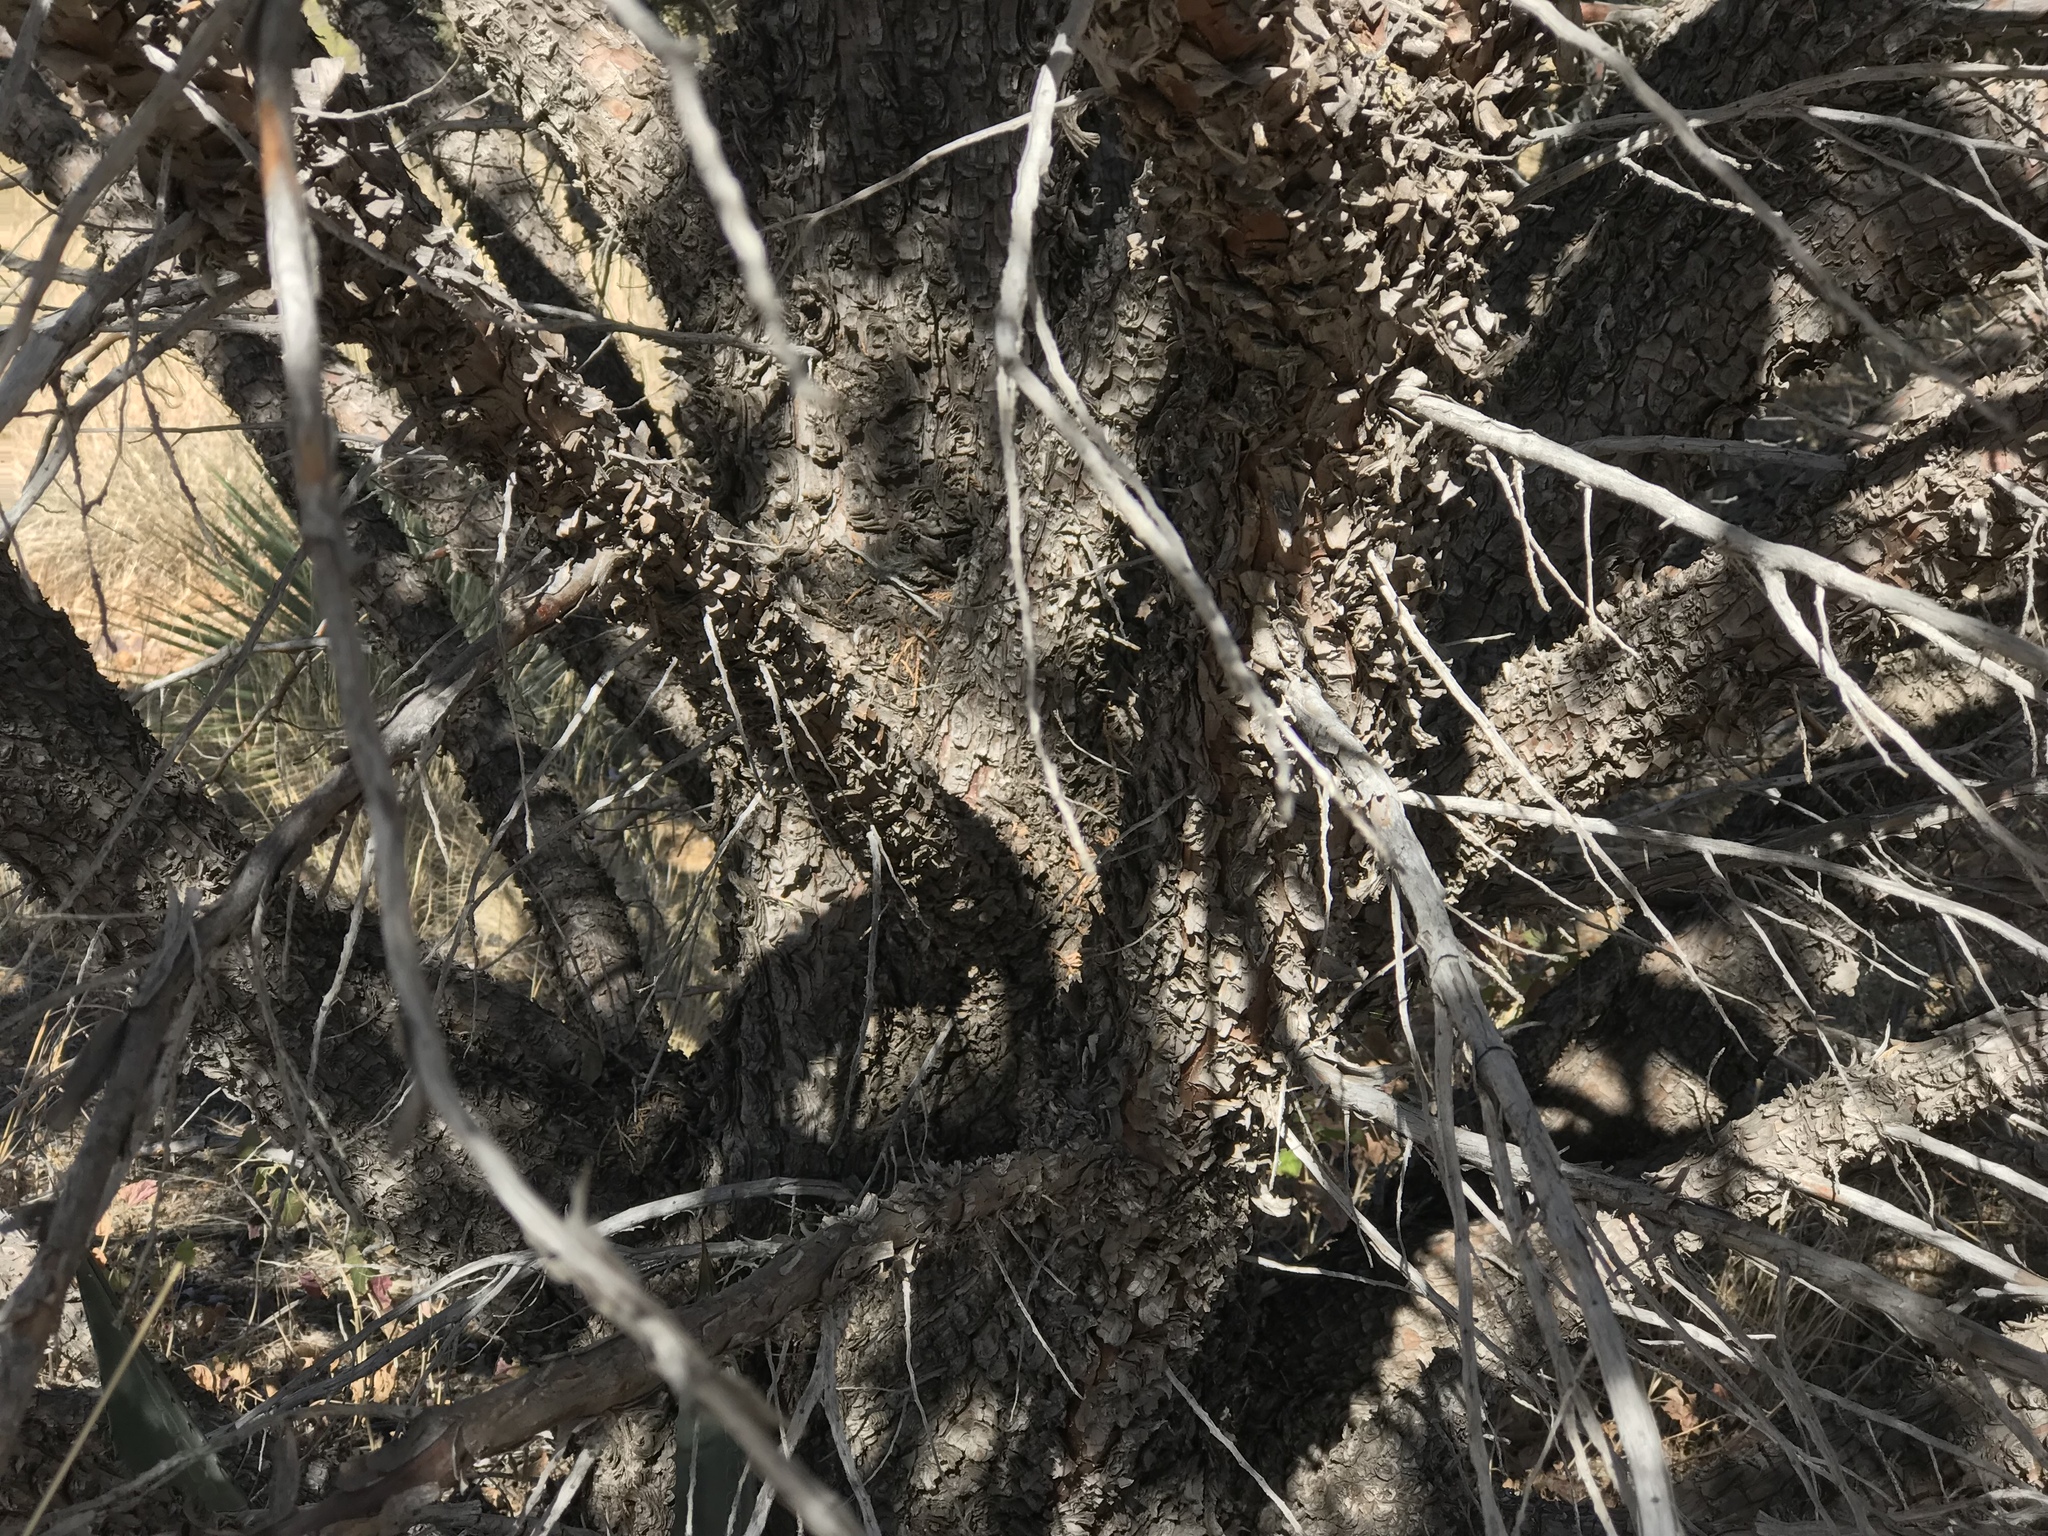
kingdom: Plantae
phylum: Tracheophyta
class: Pinopsida
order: Pinales
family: Cupressaceae
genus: Juniperus
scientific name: Juniperus deppeana
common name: Alligator juniper
